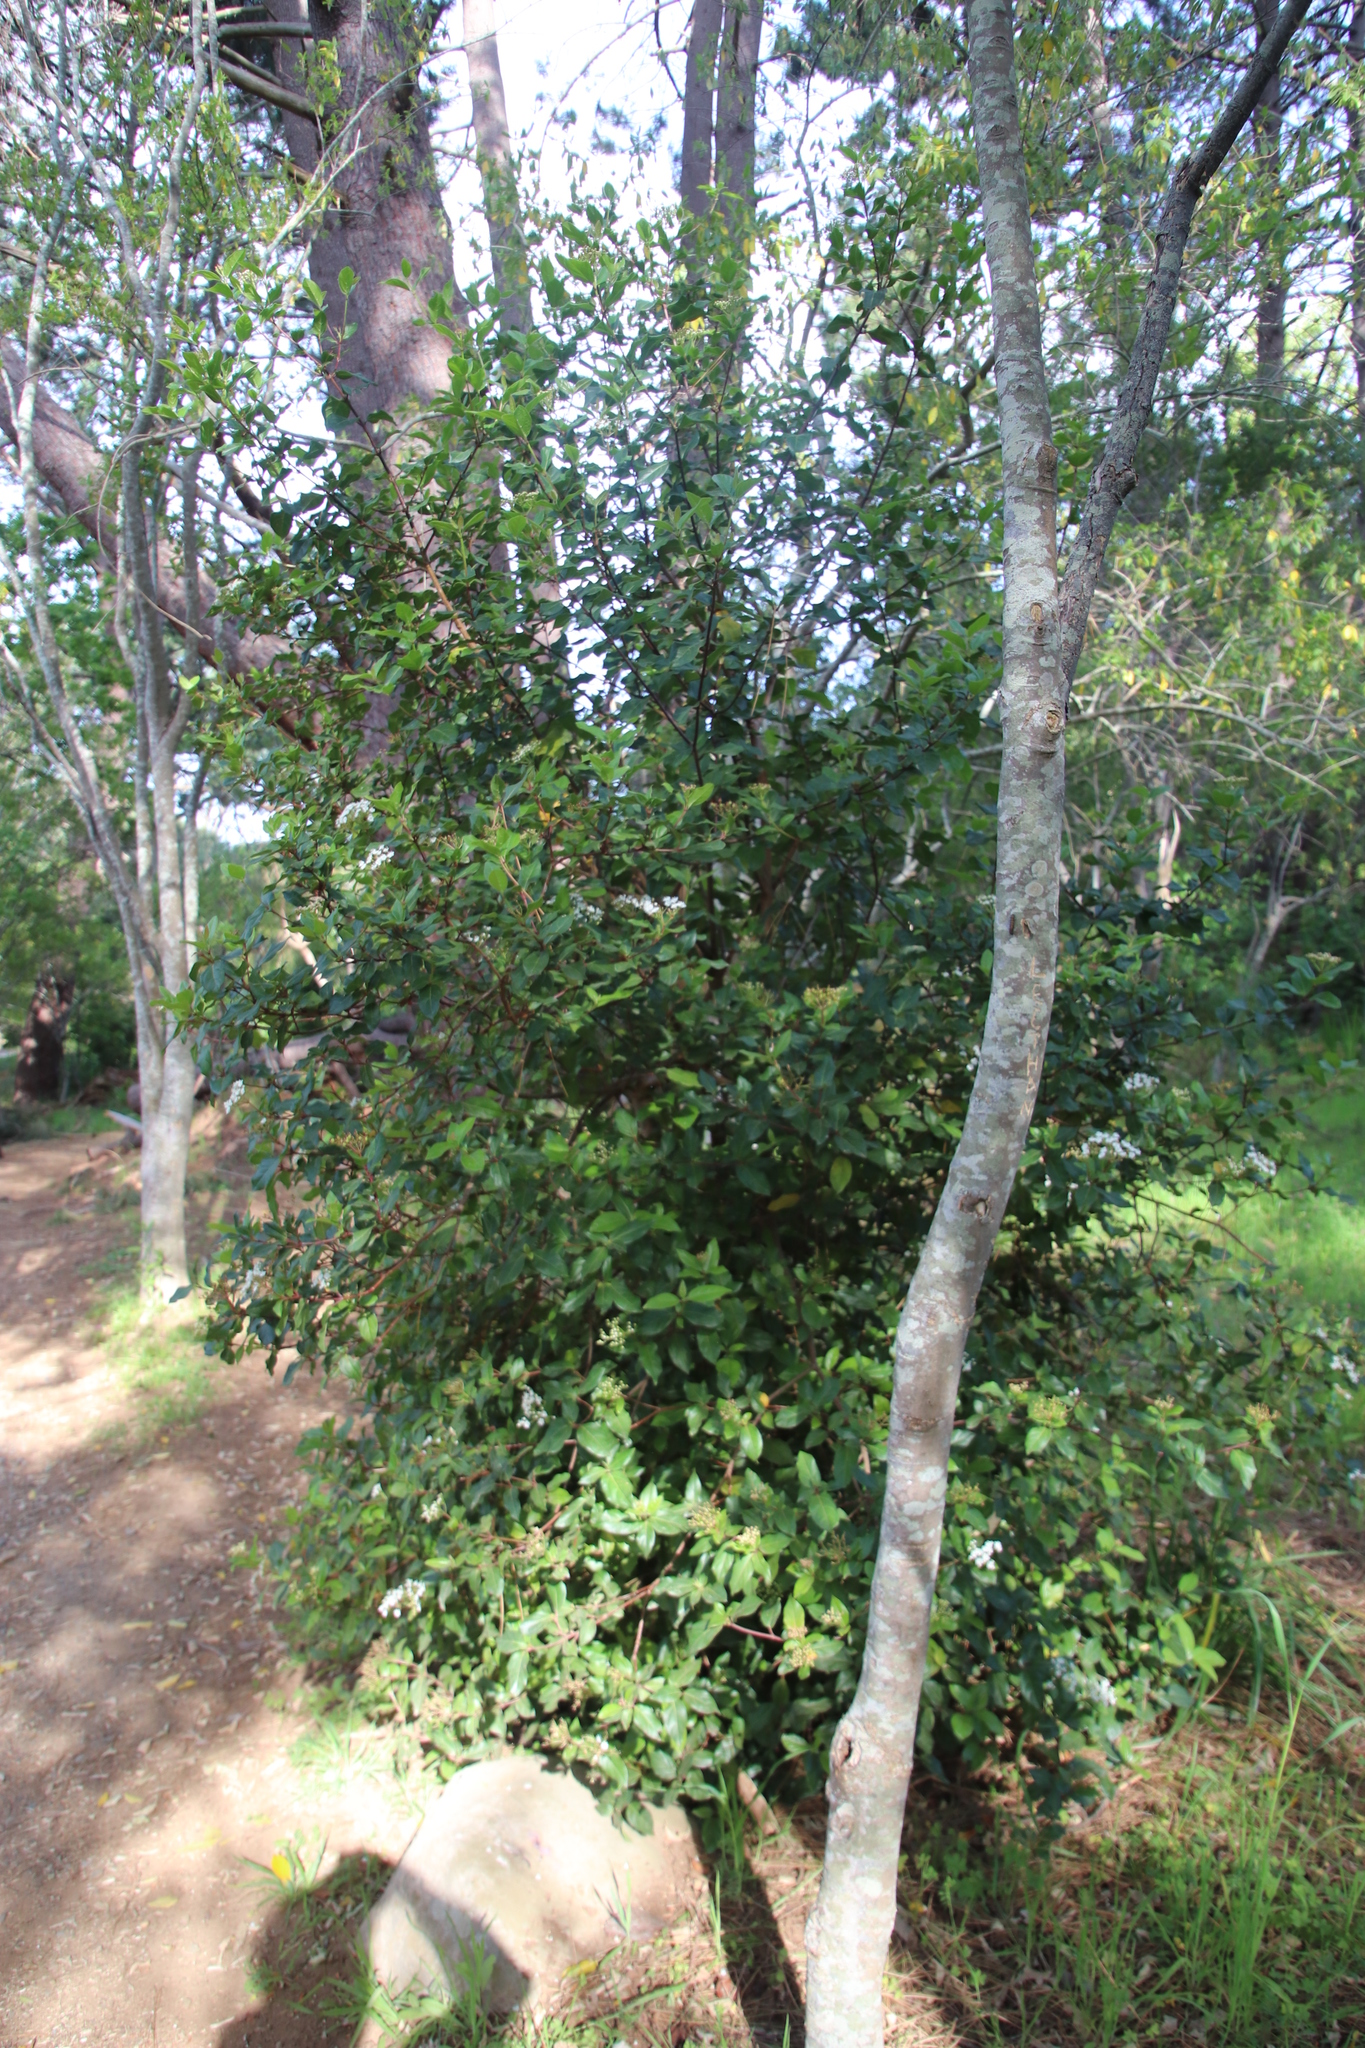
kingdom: Plantae
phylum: Tracheophyta
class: Magnoliopsida
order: Dipsacales
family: Viburnaceae
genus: Viburnum
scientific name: Viburnum tinus
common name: Laurustinus
